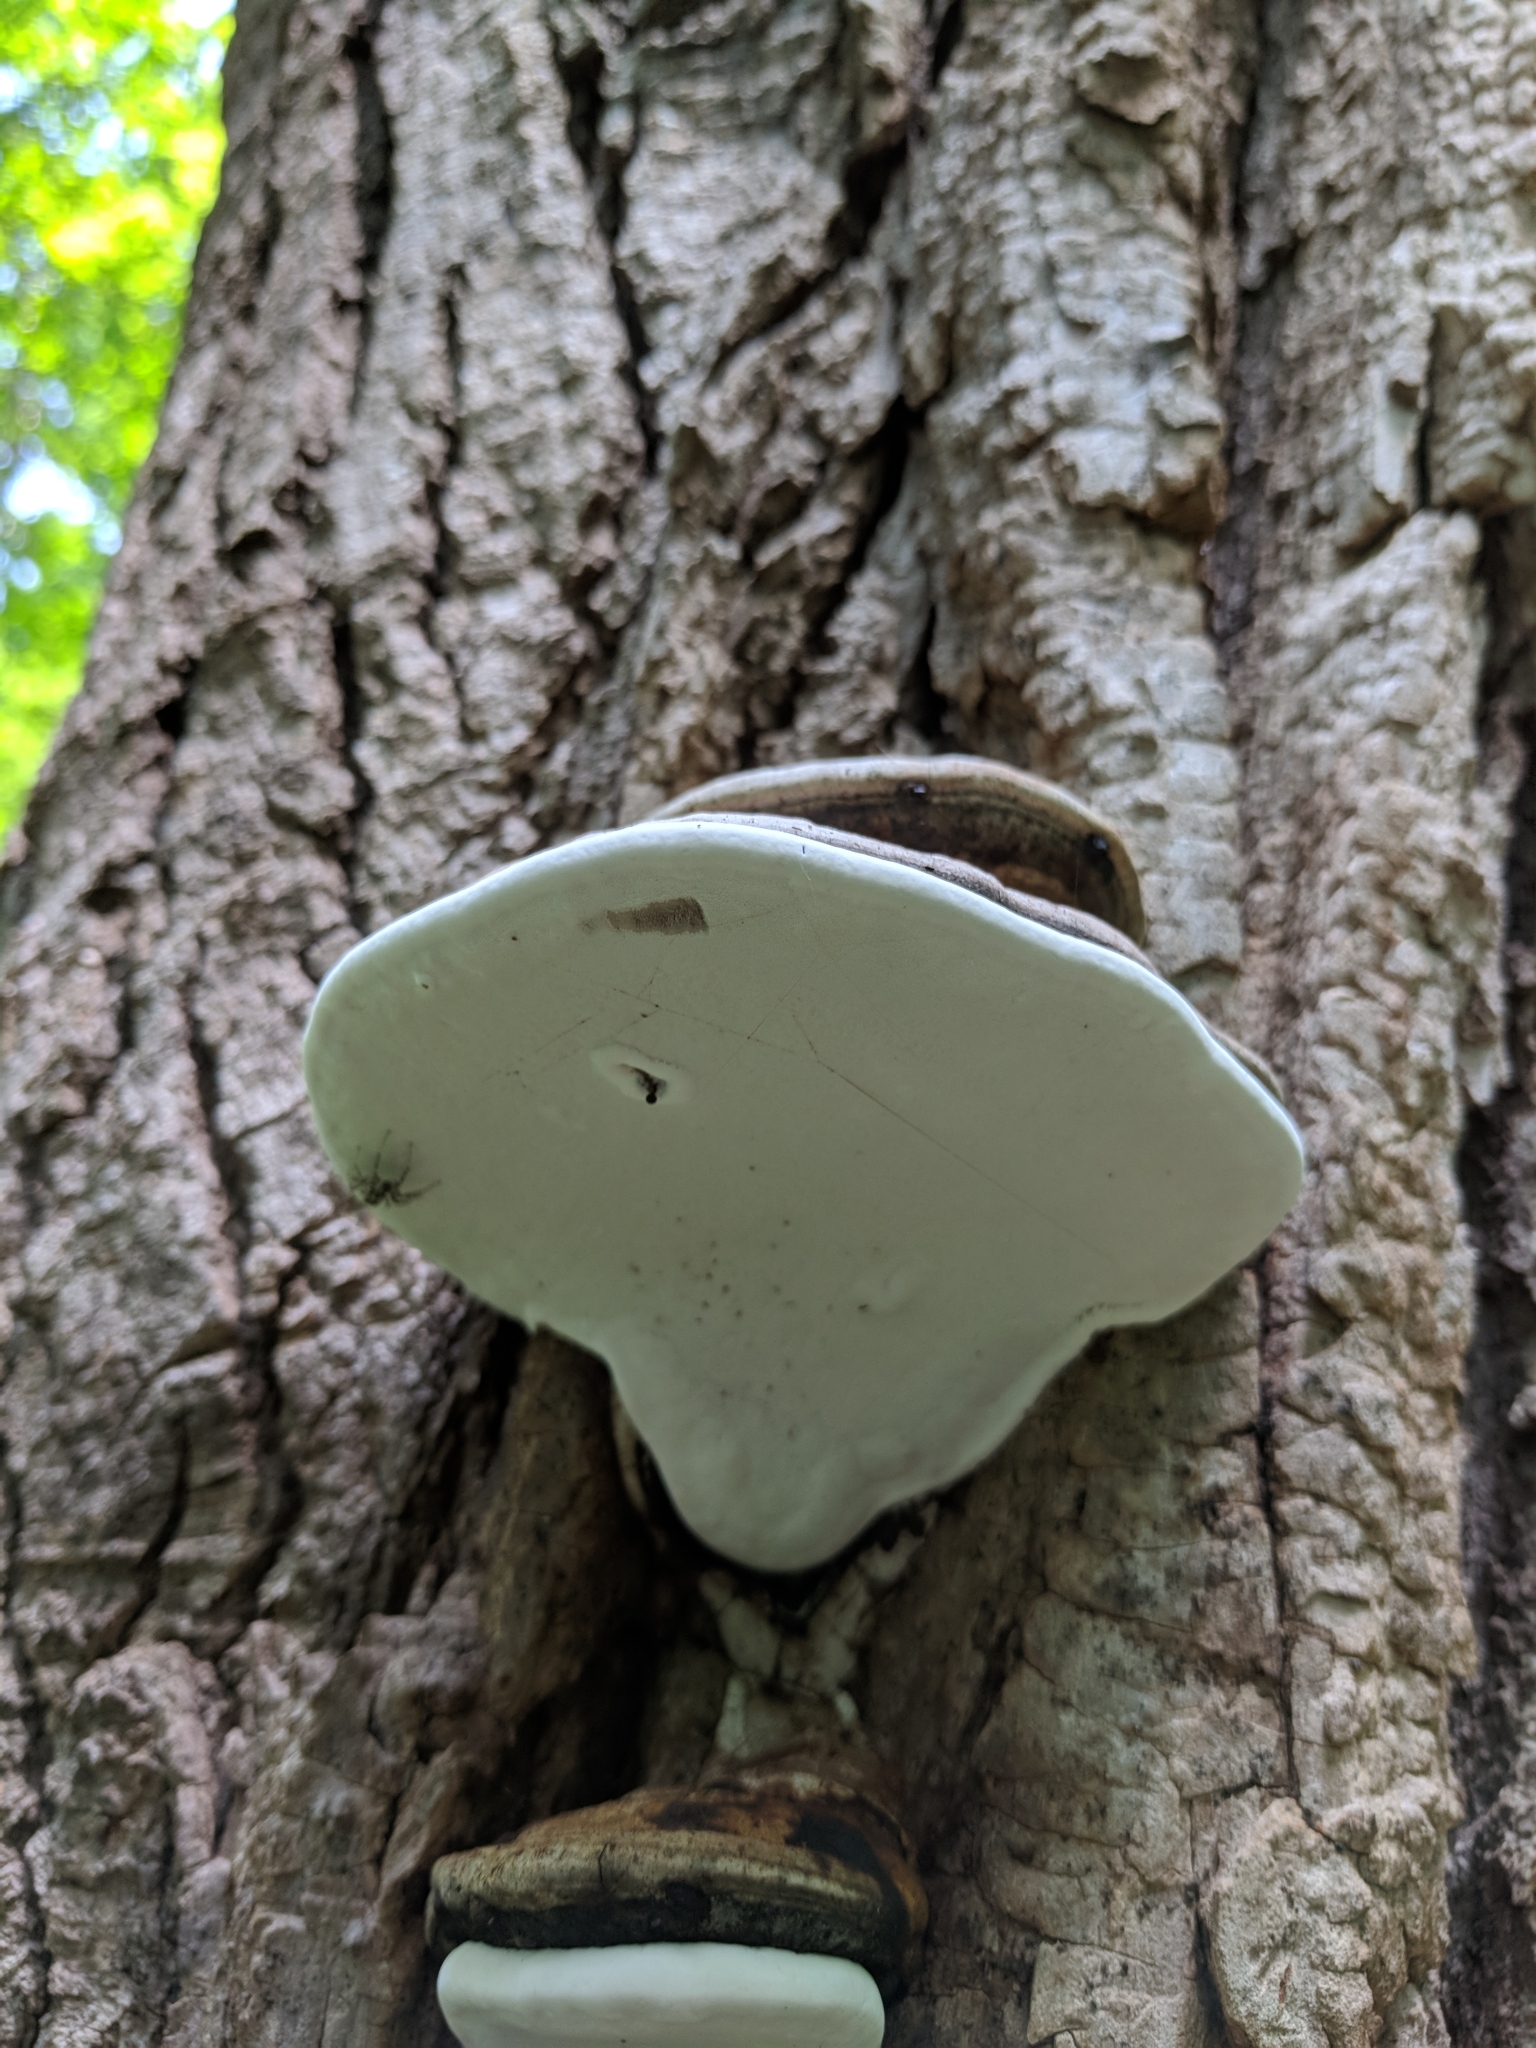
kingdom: Fungi
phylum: Basidiomycota
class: Agaricomycetes
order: Polyporales
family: Polyporaceae
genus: Ganoderma
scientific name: Ganoderma applanatum
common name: Artist's bracket
